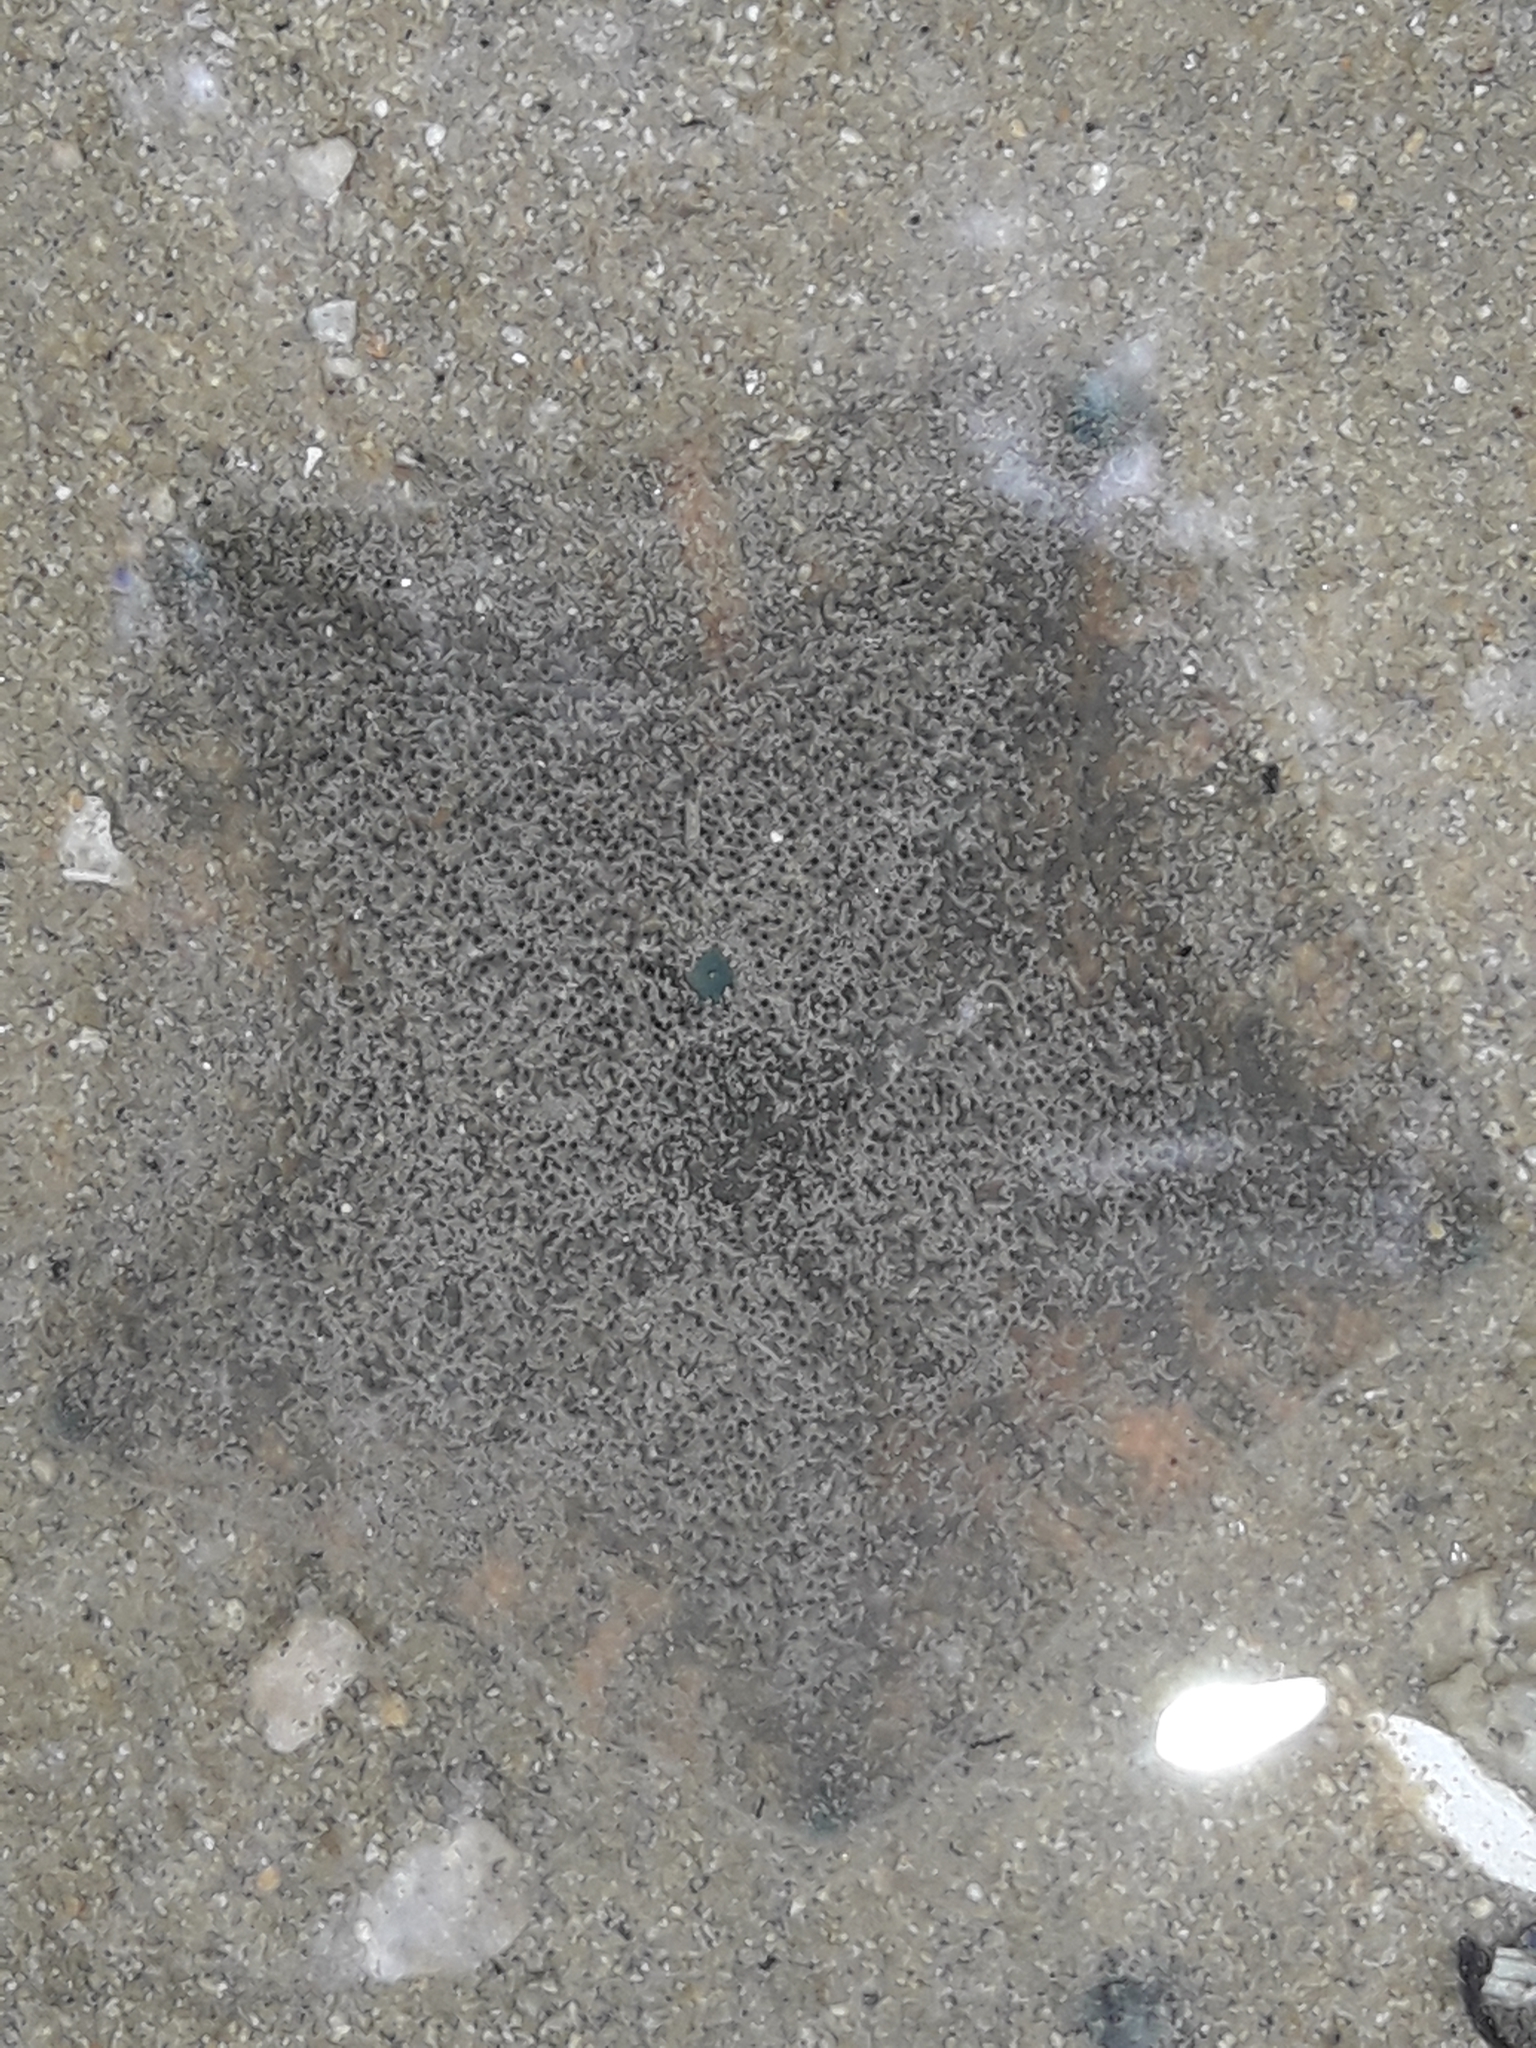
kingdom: Animalia
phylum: Echinodermata
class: Asteroidea
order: Valvatida
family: Asterinidae
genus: Patiriella
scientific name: Patiriella regularis
